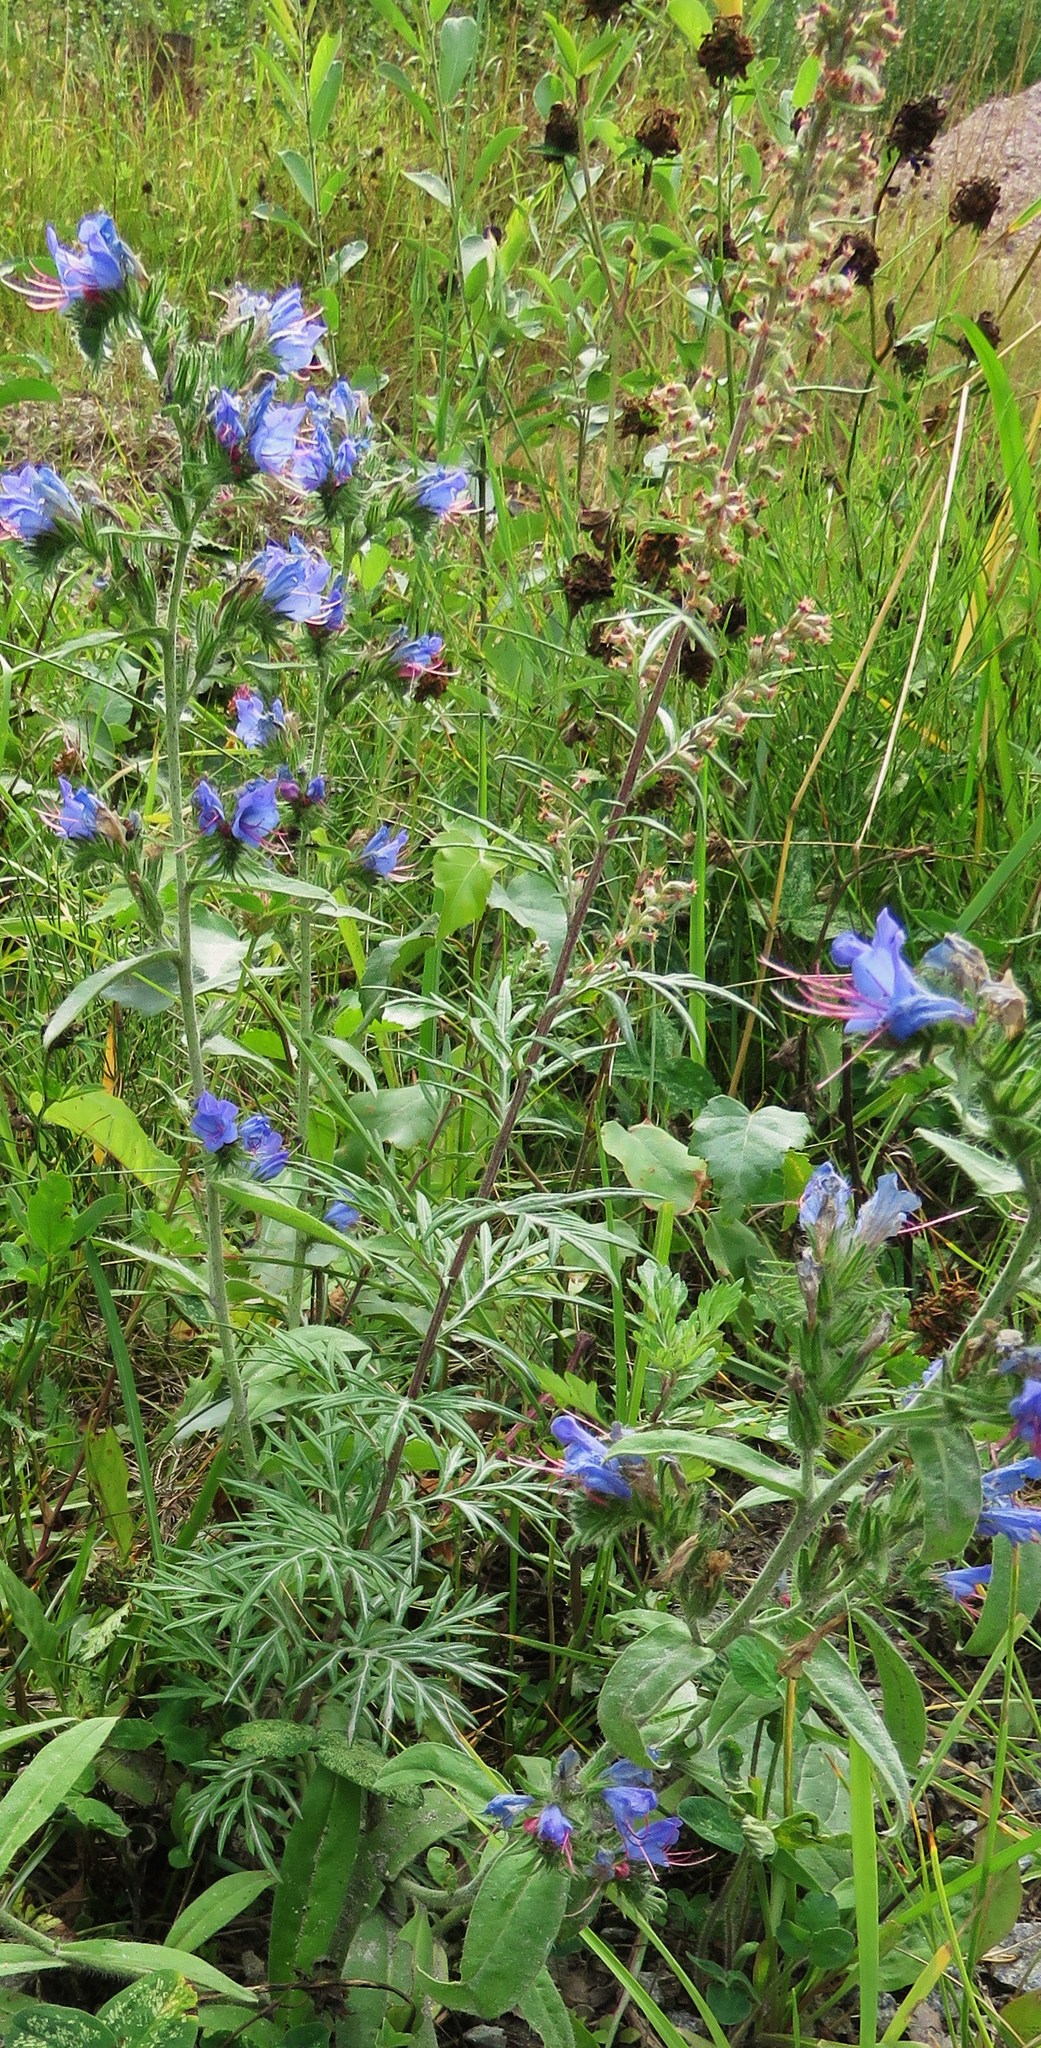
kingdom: Plantae
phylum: Tracheophyta
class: Magnoliopsida
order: Asterales
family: Asteraceae
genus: Artemisia
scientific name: Artemisia vulgaris
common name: Mugwort
